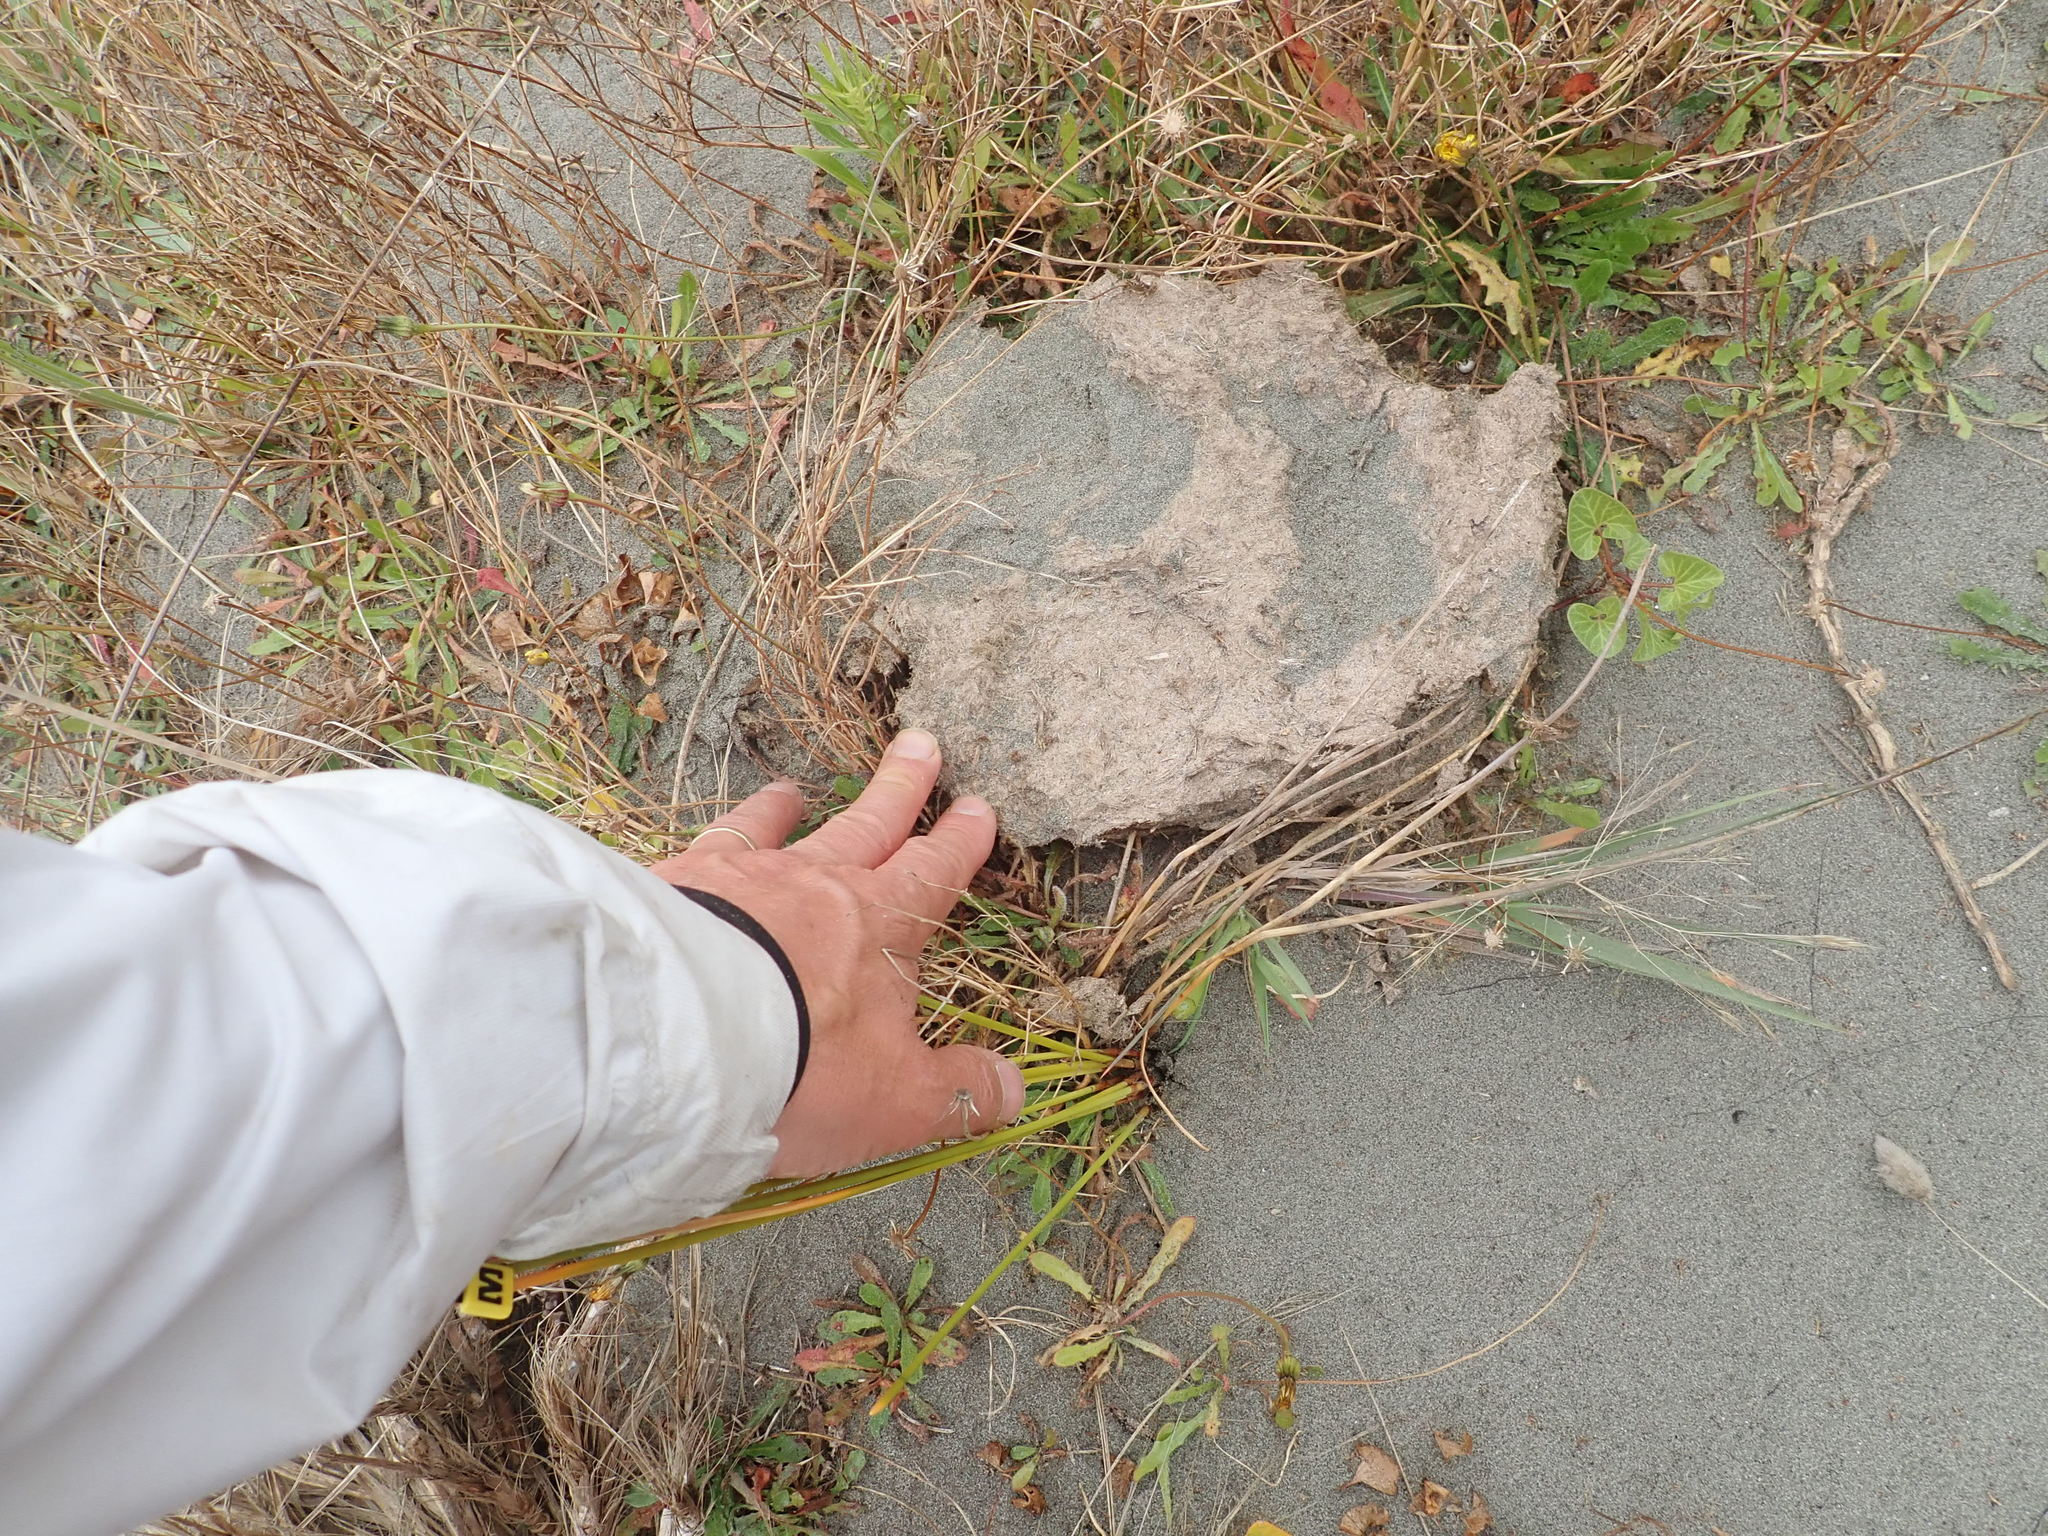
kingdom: Animalia
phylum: Chordata
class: Mammalia
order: Artiodactyla
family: Bovidae
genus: Bos
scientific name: Bos taurus
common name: Domesticated cattle
